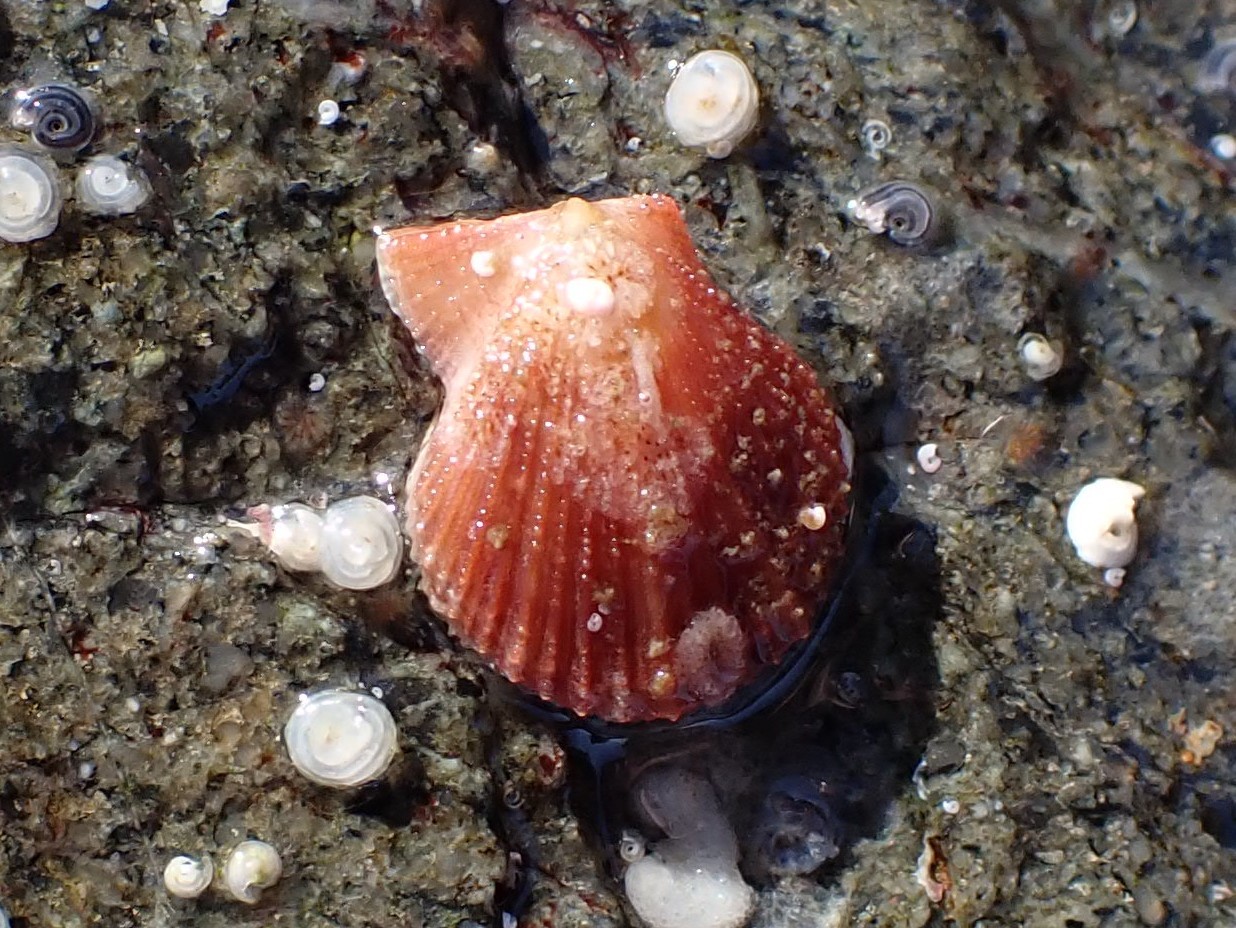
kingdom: Animalia
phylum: Mollusca
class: Bivalvia
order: Pectinida
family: Pectinidae
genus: Chlamys
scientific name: Chlamys hastata
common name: Spear scallop
